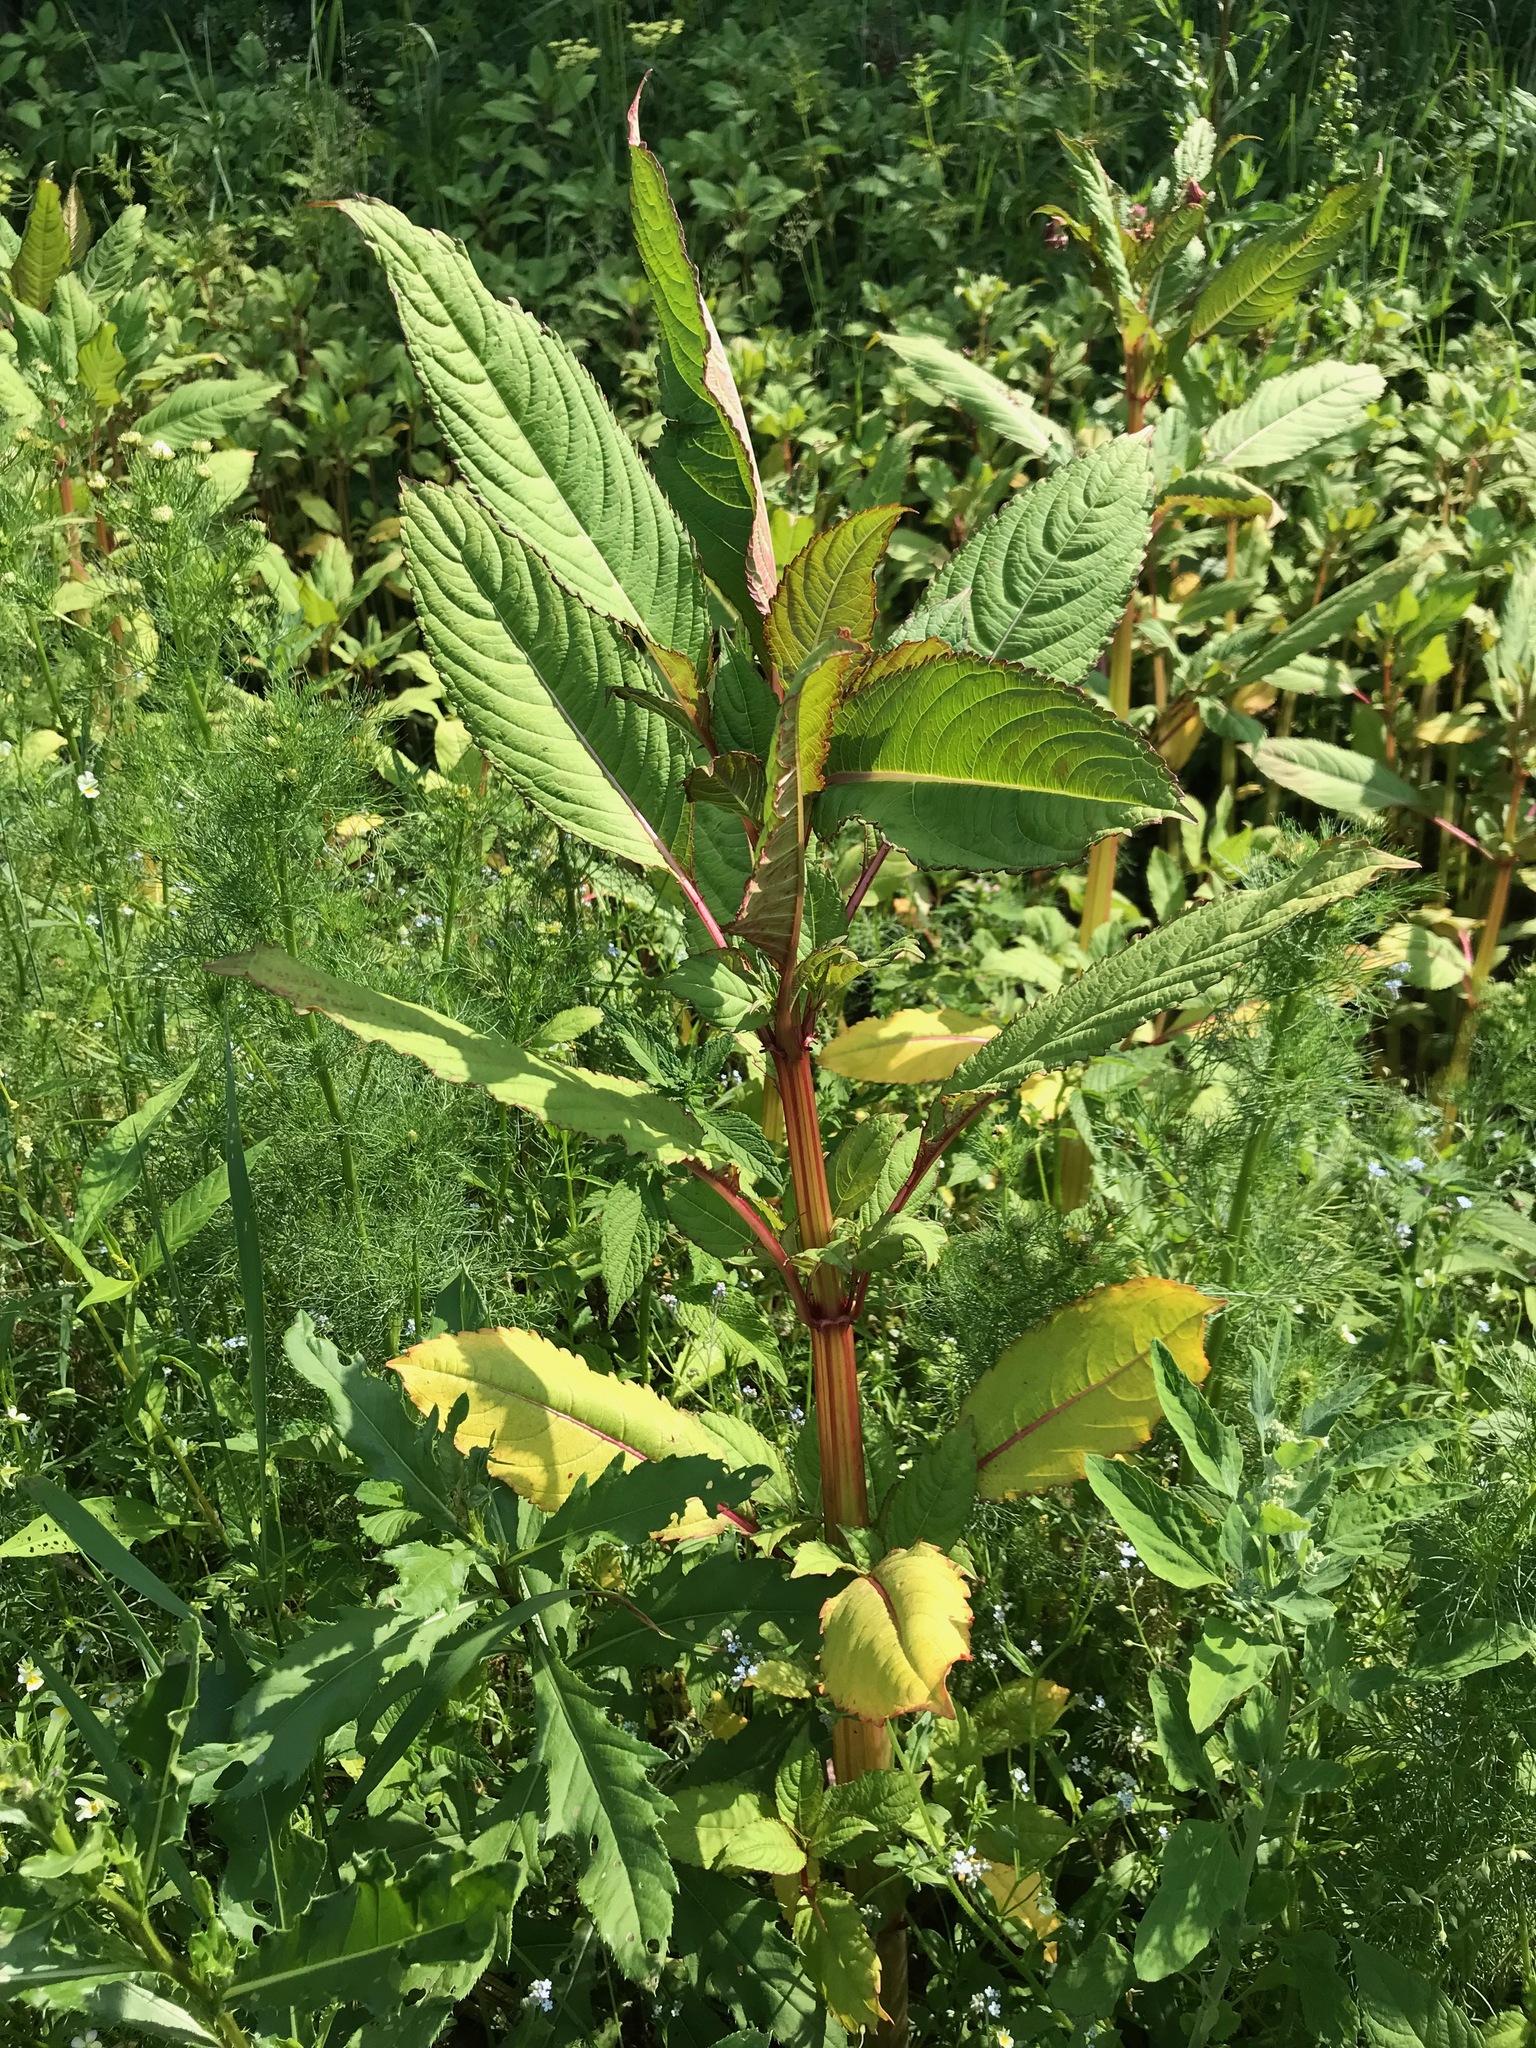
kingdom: Plantae
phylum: Tracheophyta
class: Magnoliopsida
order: Ericales
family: Balsaminaceae
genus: Impatiens
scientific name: Impatiens glandulifera
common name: Himalayan balsam
